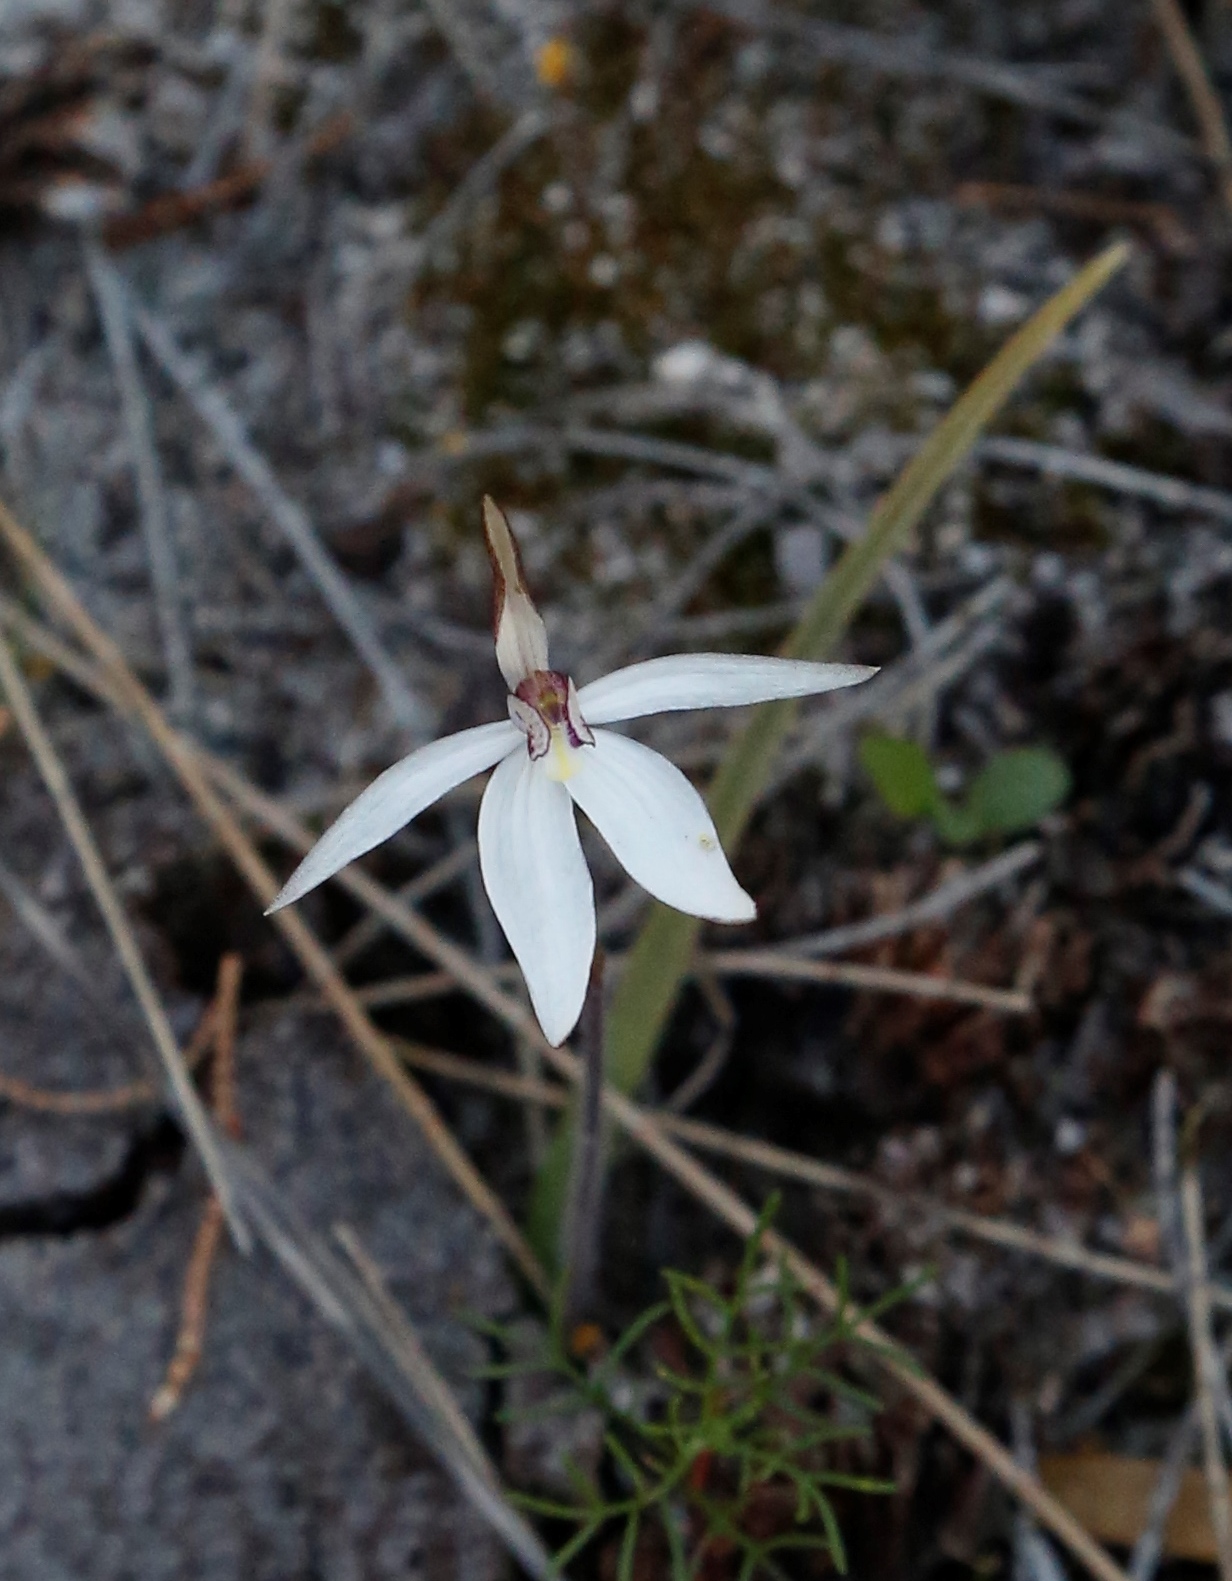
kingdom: Plantae
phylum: Tracheophyta
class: Liliopsida
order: Asparagales
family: Orchidaceae
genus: Caladenia
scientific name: Caladenia saccharata
